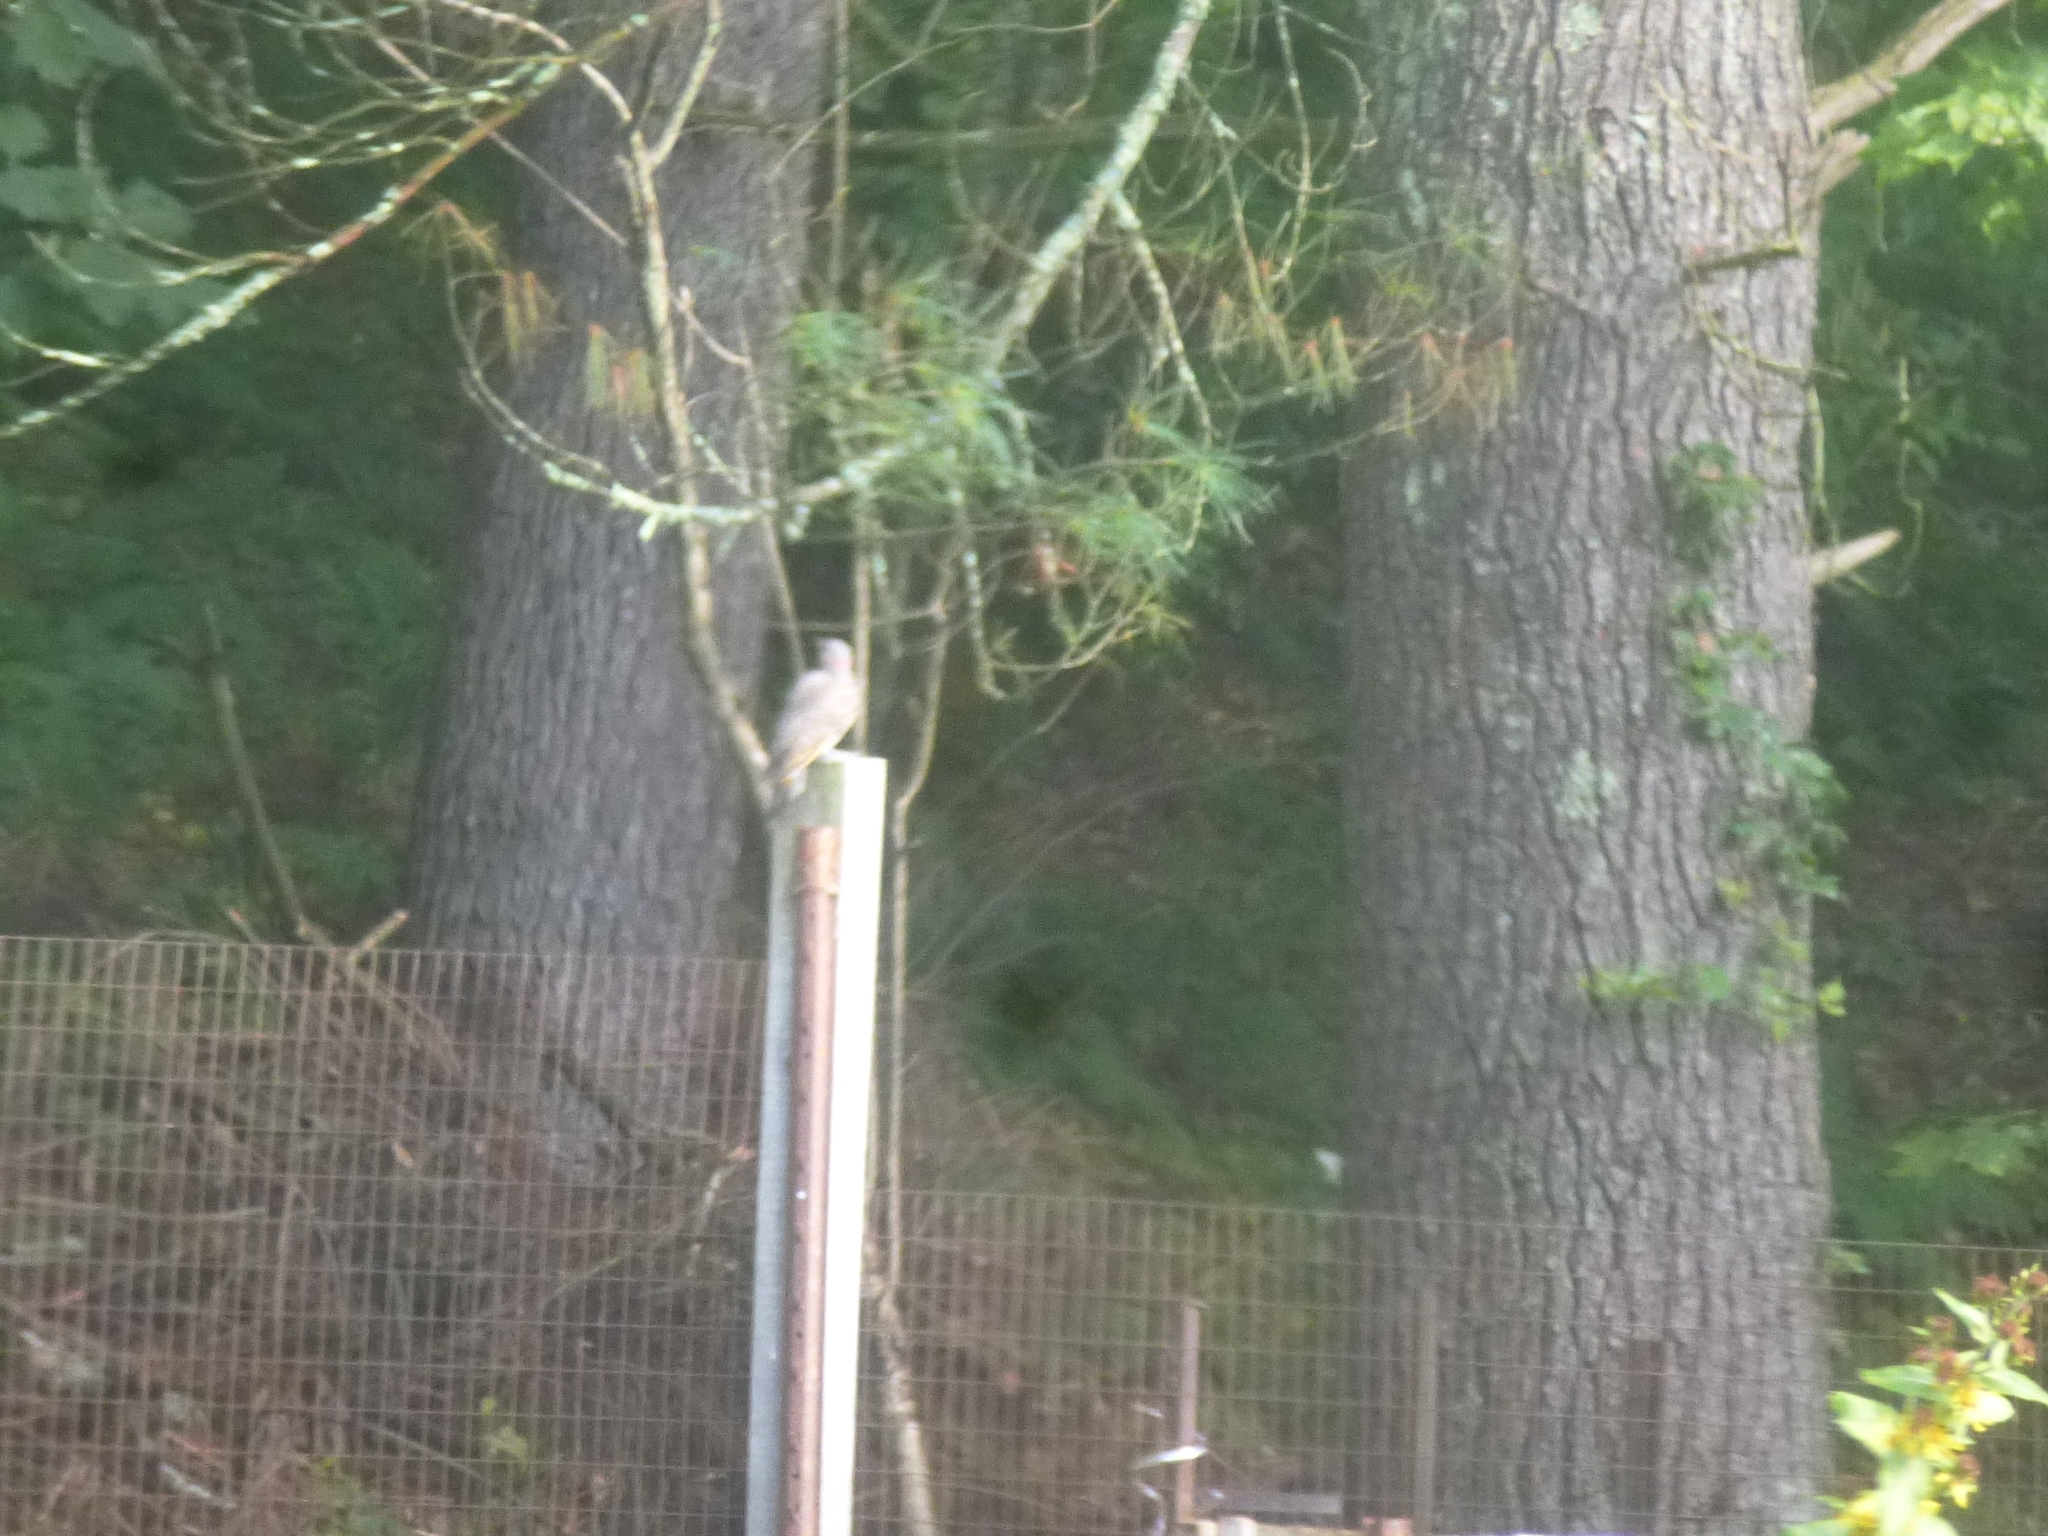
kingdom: Animalia
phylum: Chordata
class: Aves
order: Piciformes
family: Picidae
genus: Colaptes
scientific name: Colaptes auratus
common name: Northern flicker
